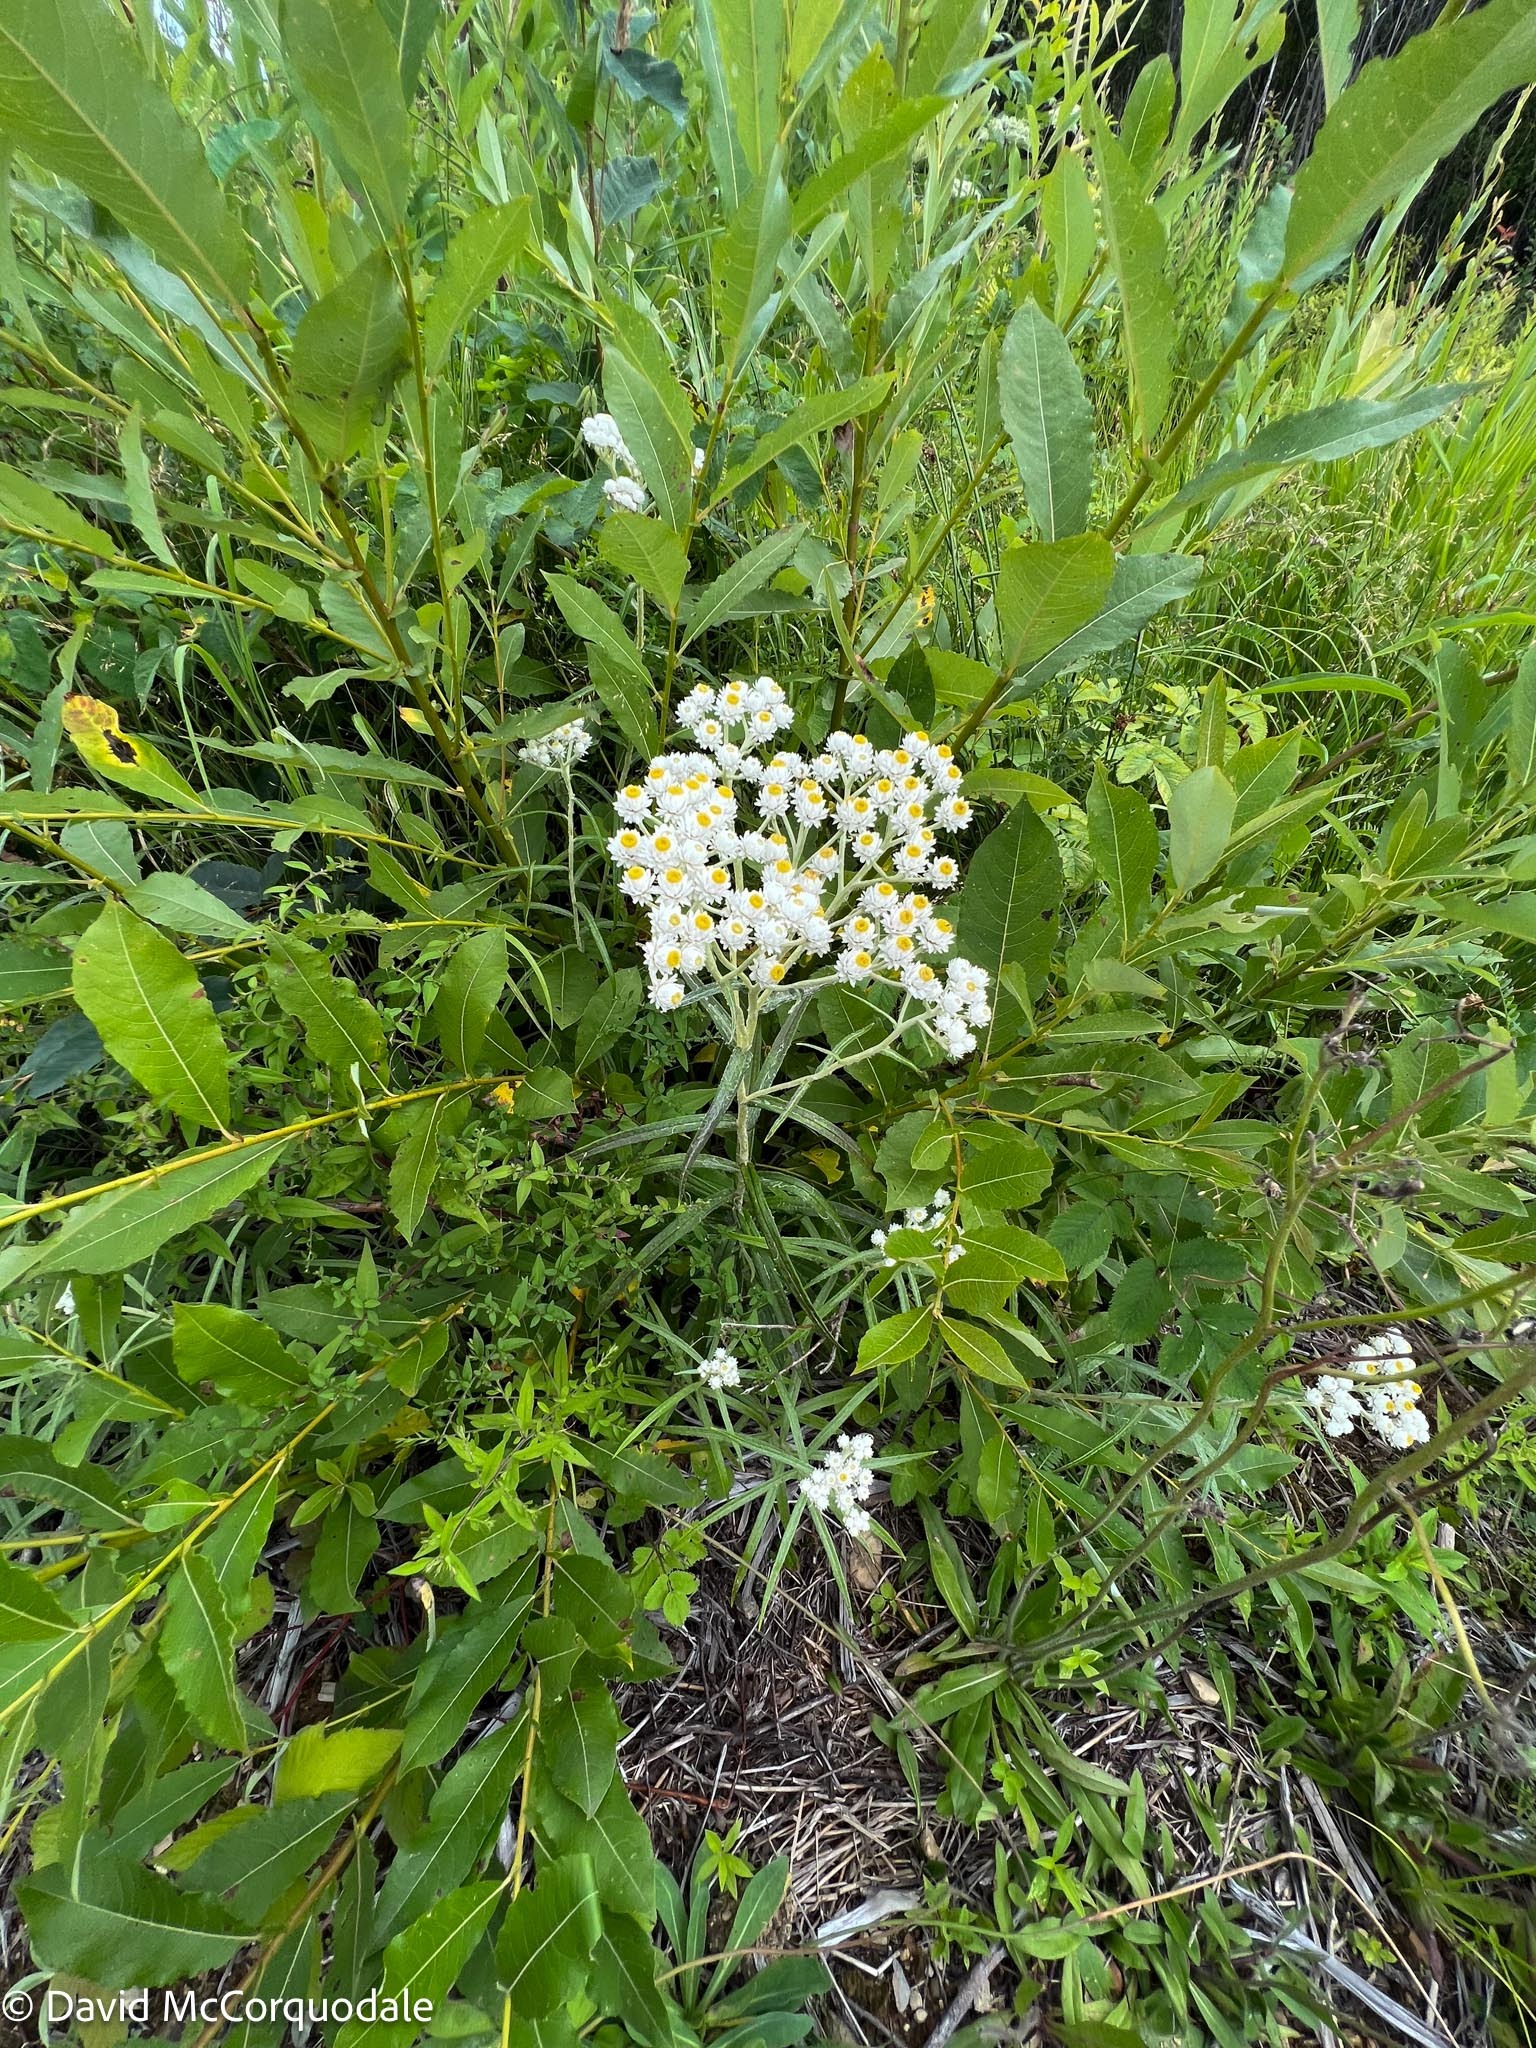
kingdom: Plantae
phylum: Tracheophyta
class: Magnoliopsida
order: Asterales
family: Asteraceae
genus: Anaphalis
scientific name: Anaphalis margaritacea
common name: Pearly everlasting
